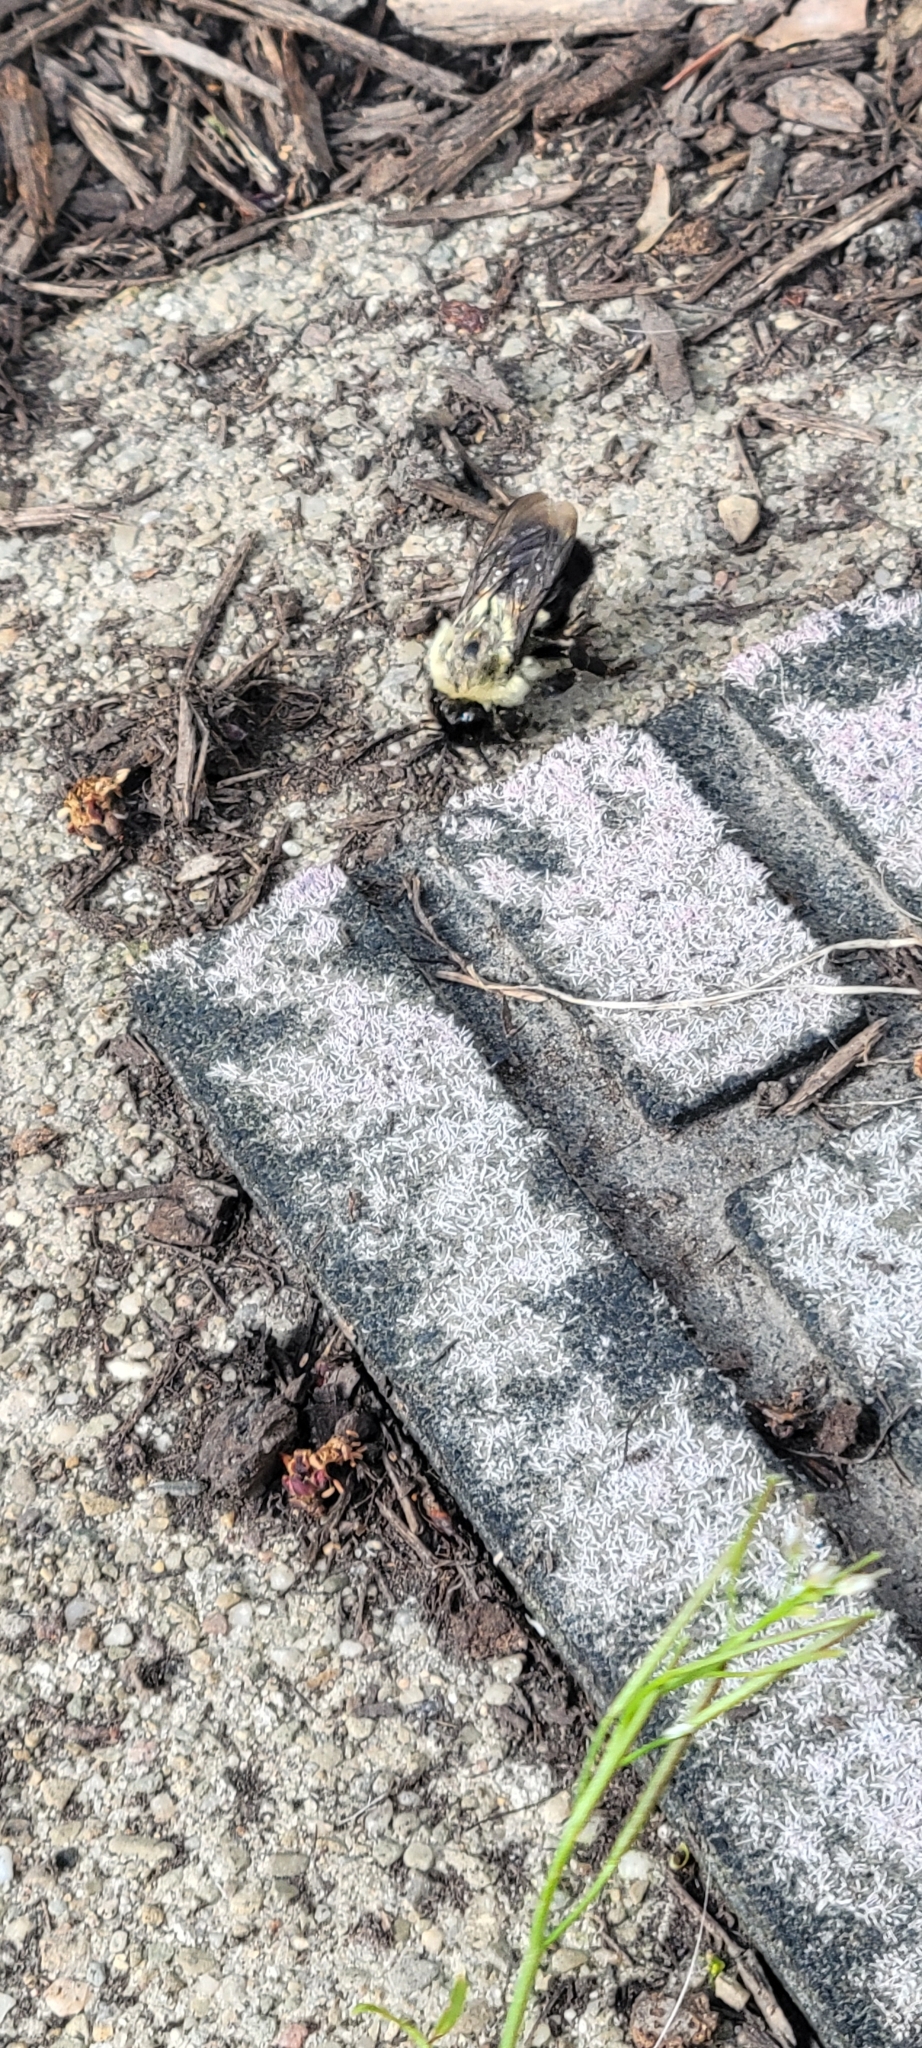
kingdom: Animalia
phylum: Arthropoda
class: Insecta
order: Hymenoptera
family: Apidae
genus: Bombus
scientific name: Bombus impatiens
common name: Common eastern bumble bee
